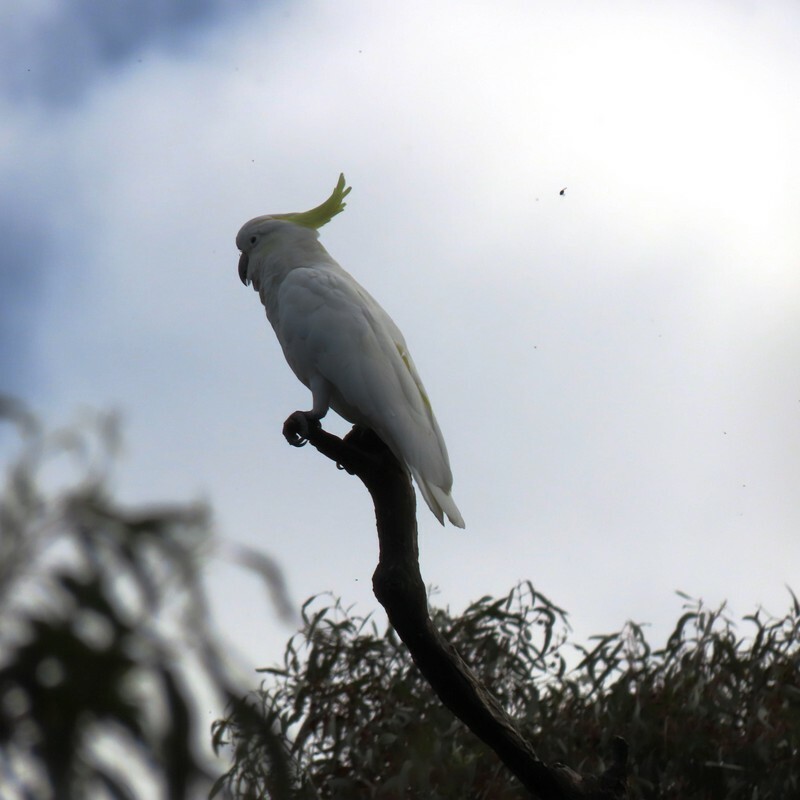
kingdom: Animalia
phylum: Chordata
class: Aves
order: Psittaciformes
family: Psittacidae
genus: Cacatua
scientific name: Cacatua galerita
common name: Sulphur-crested cockatoo
